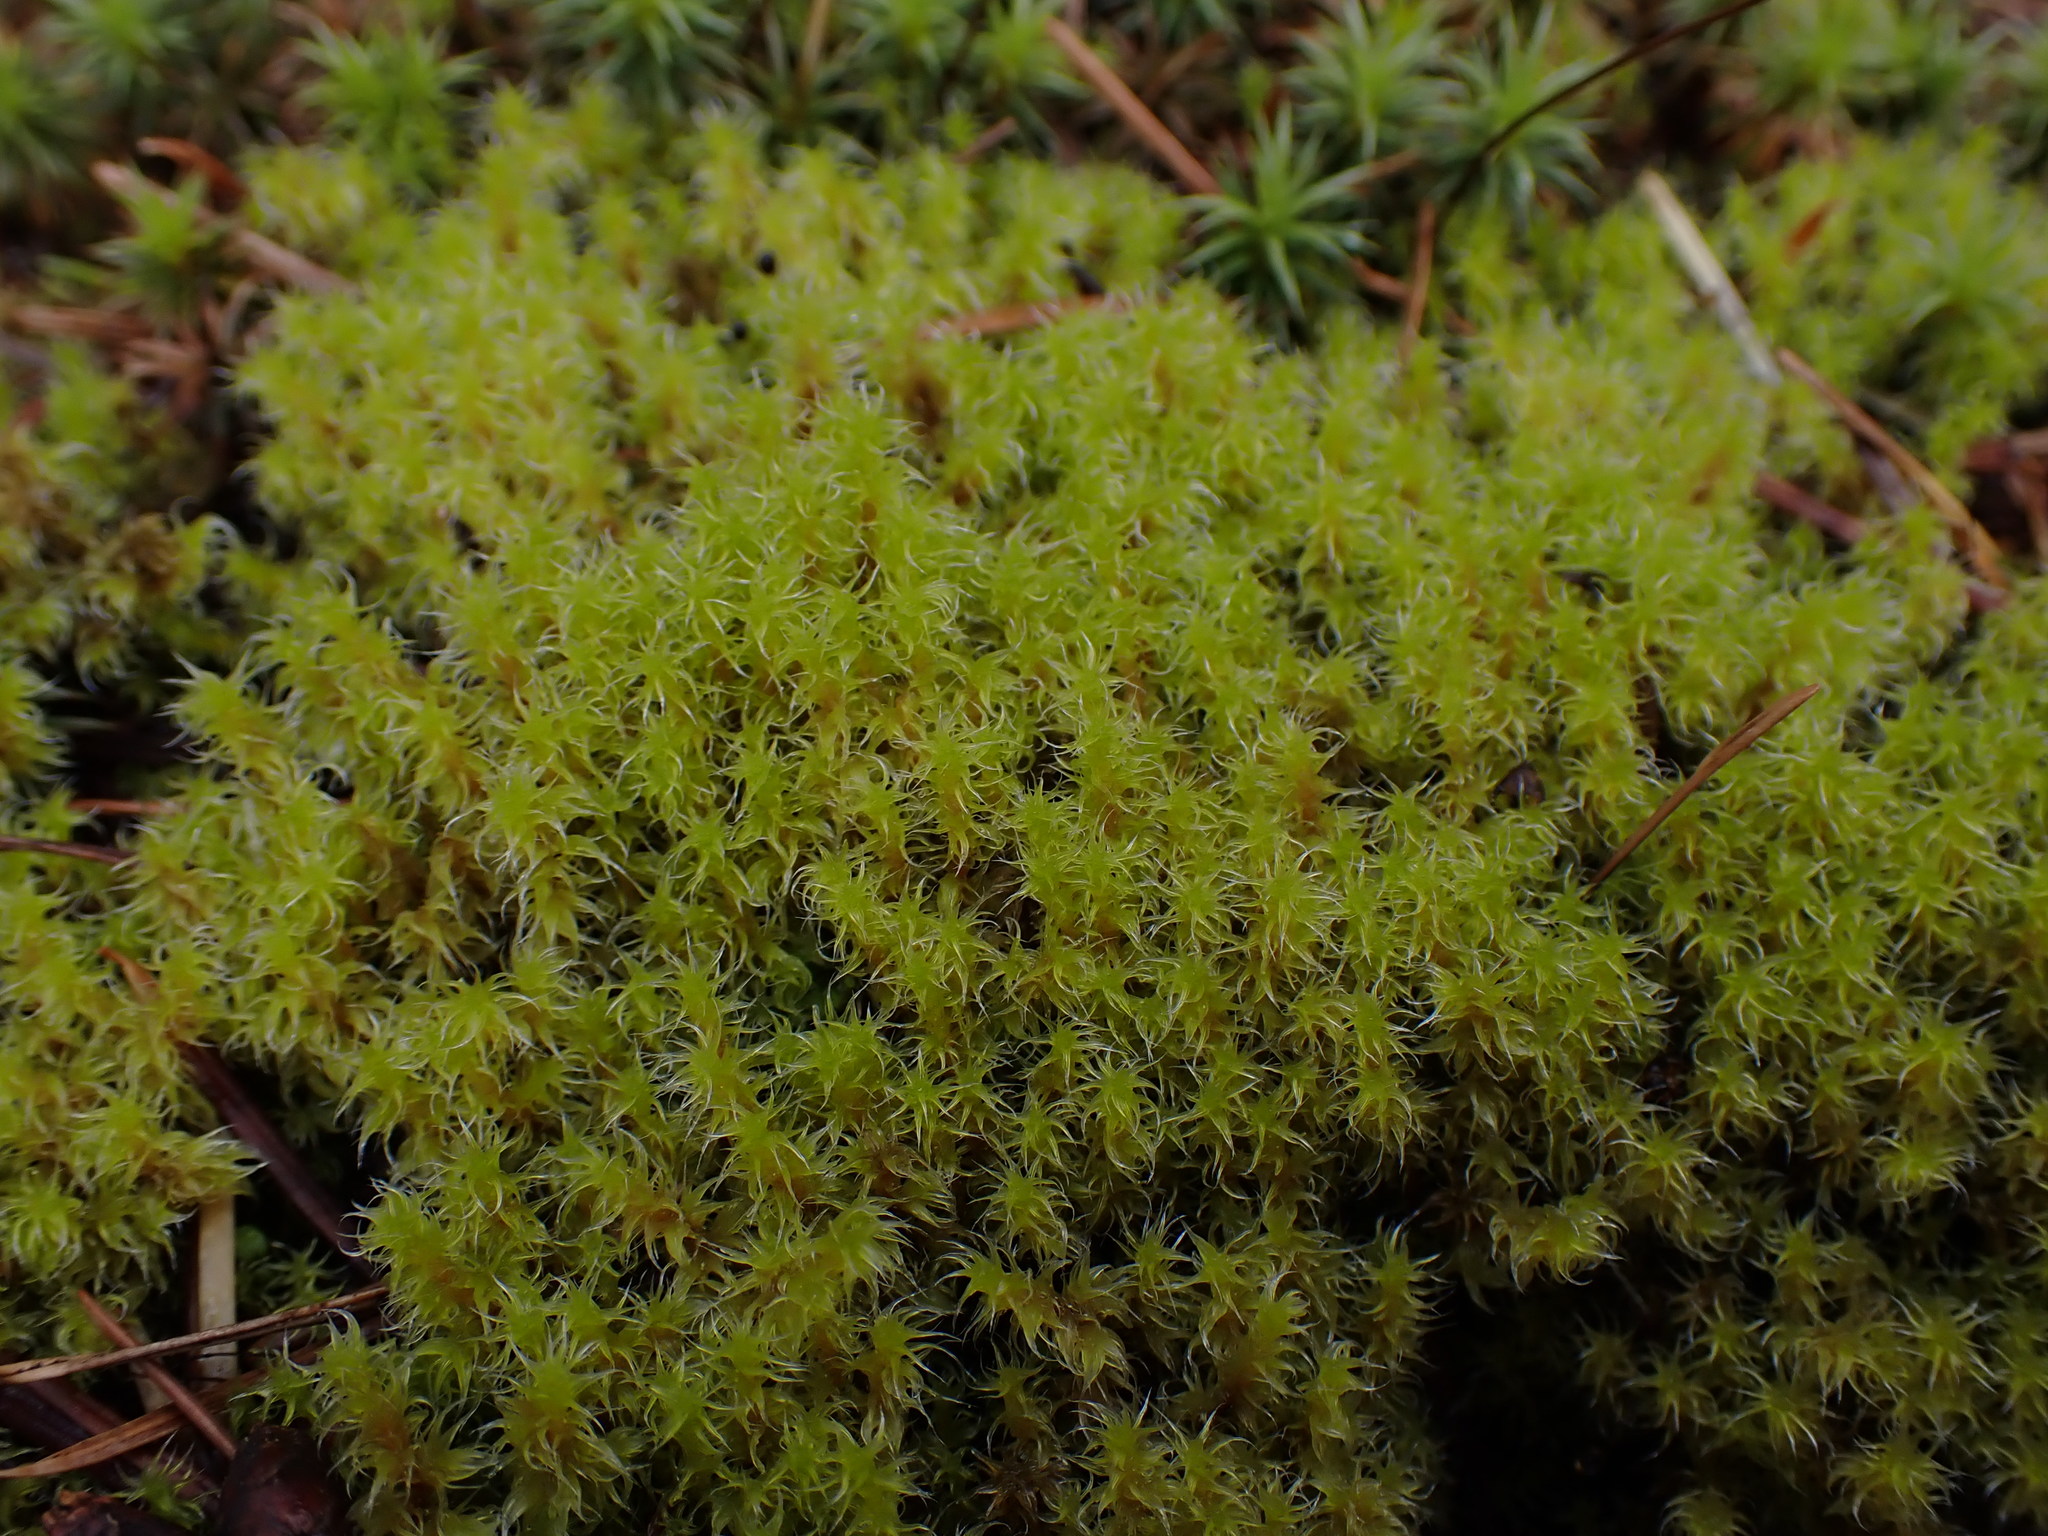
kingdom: Plantae
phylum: Bryophyta
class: Bryopsida
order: Grimmiales
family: Grimmiaceae
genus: Niphotrichum
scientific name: Niphotrichum elongatum
